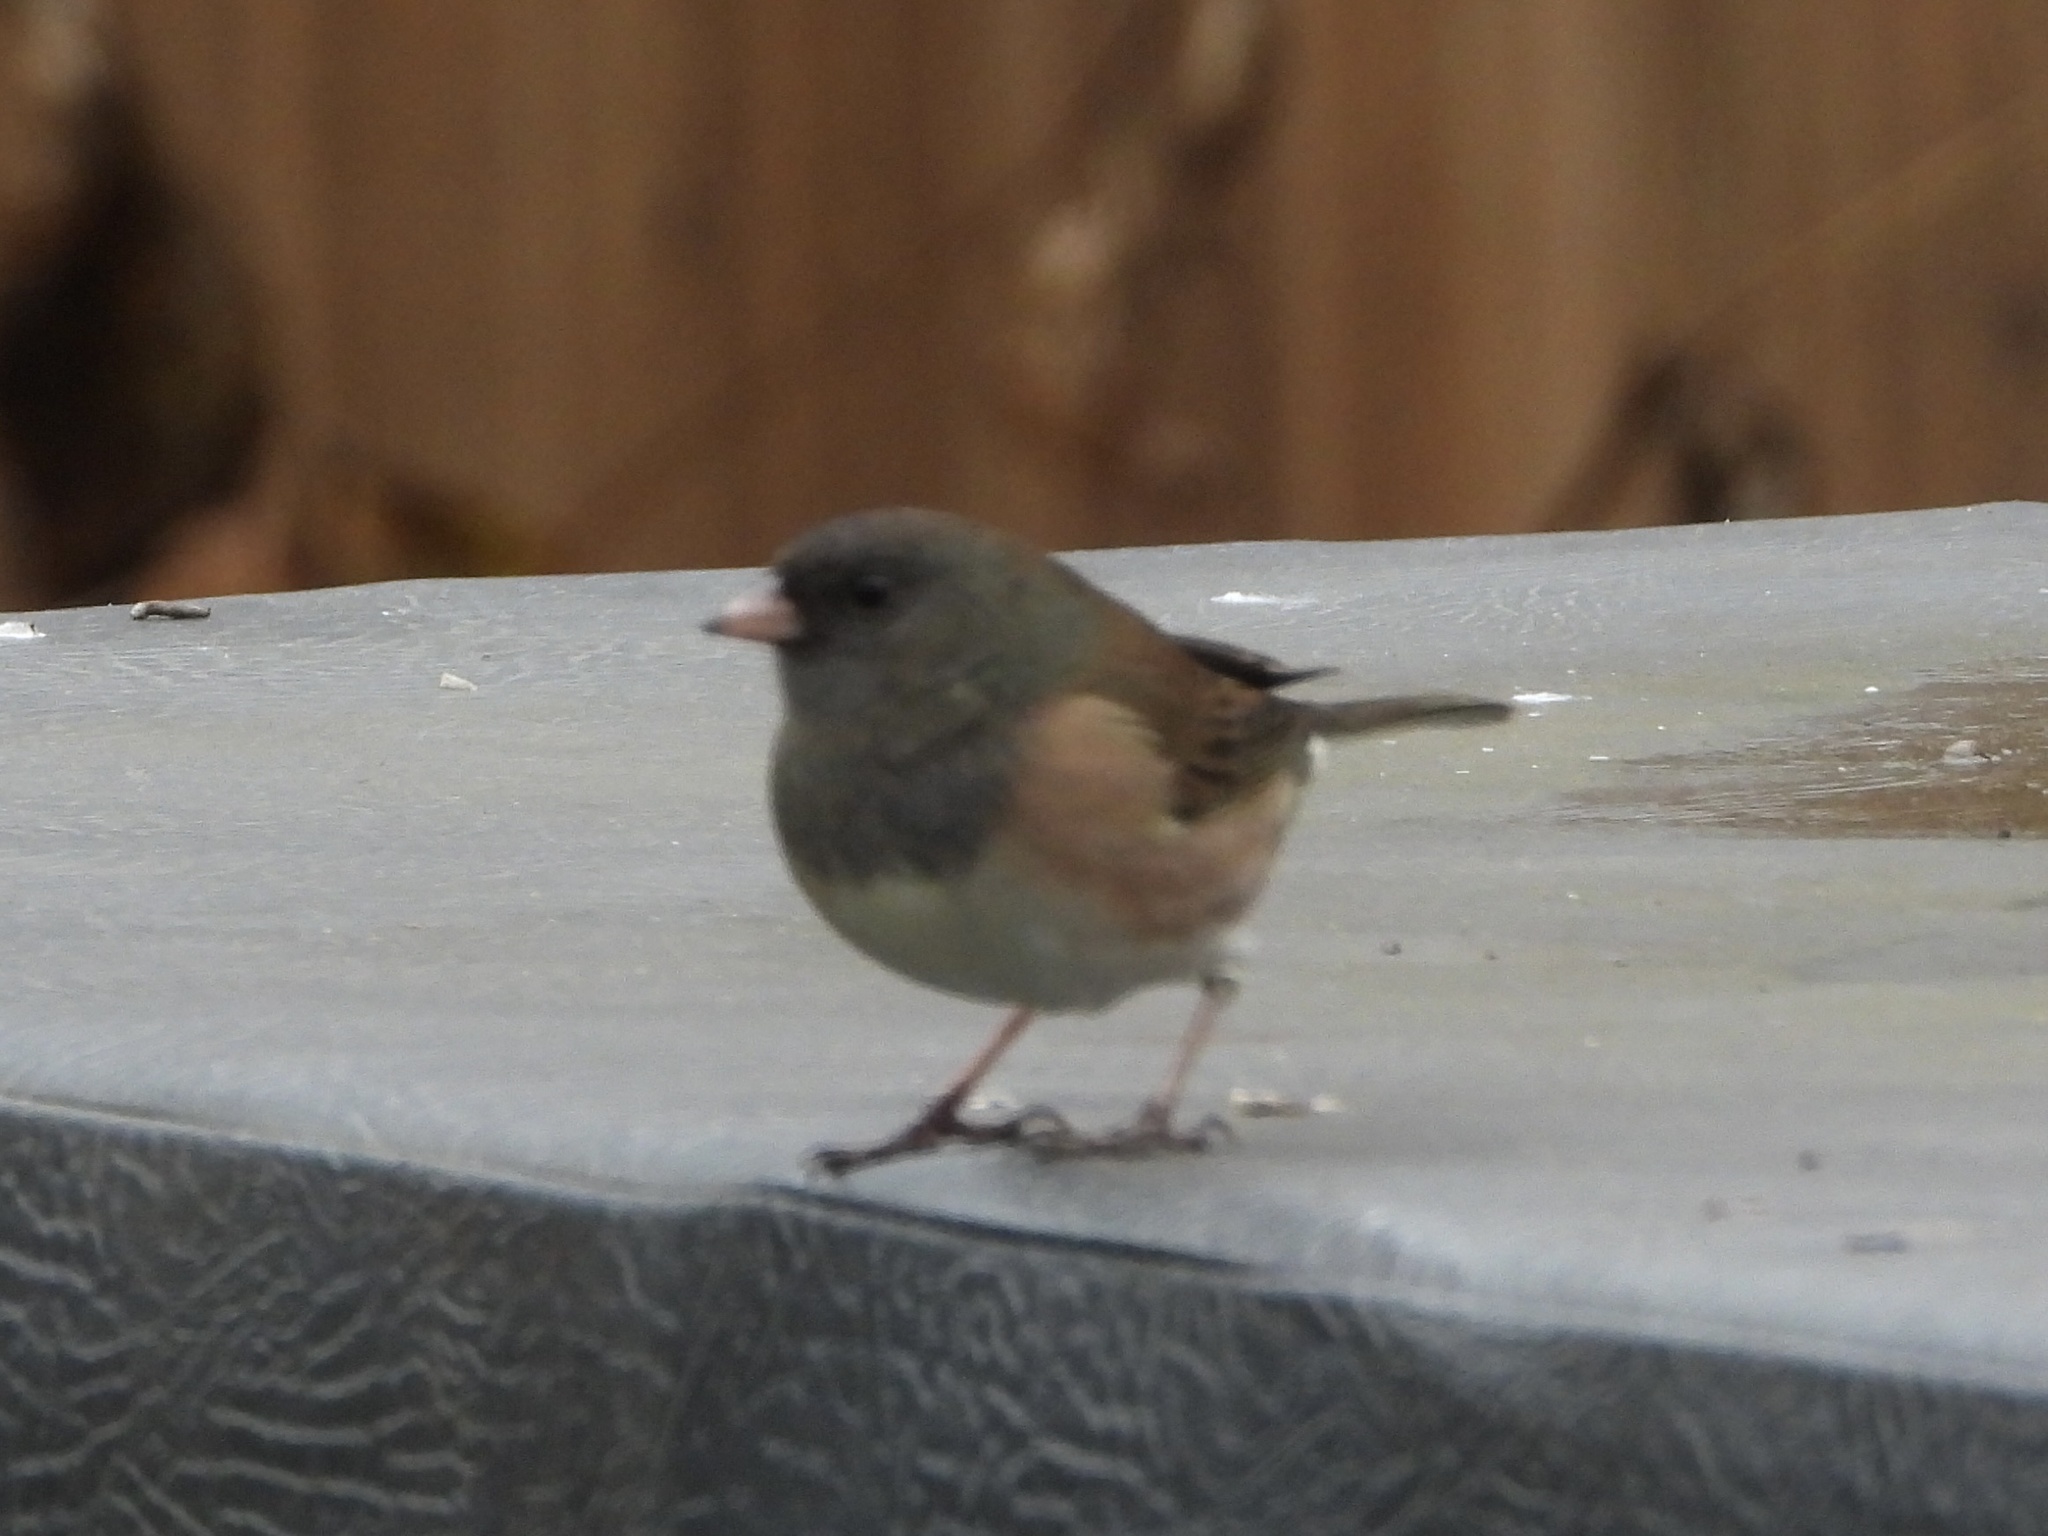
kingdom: Animalia
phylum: Chordata
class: Aves
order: Passeriformes
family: Passerellidae
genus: Junco
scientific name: Junco hyemalis
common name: Dark-eyed junco
